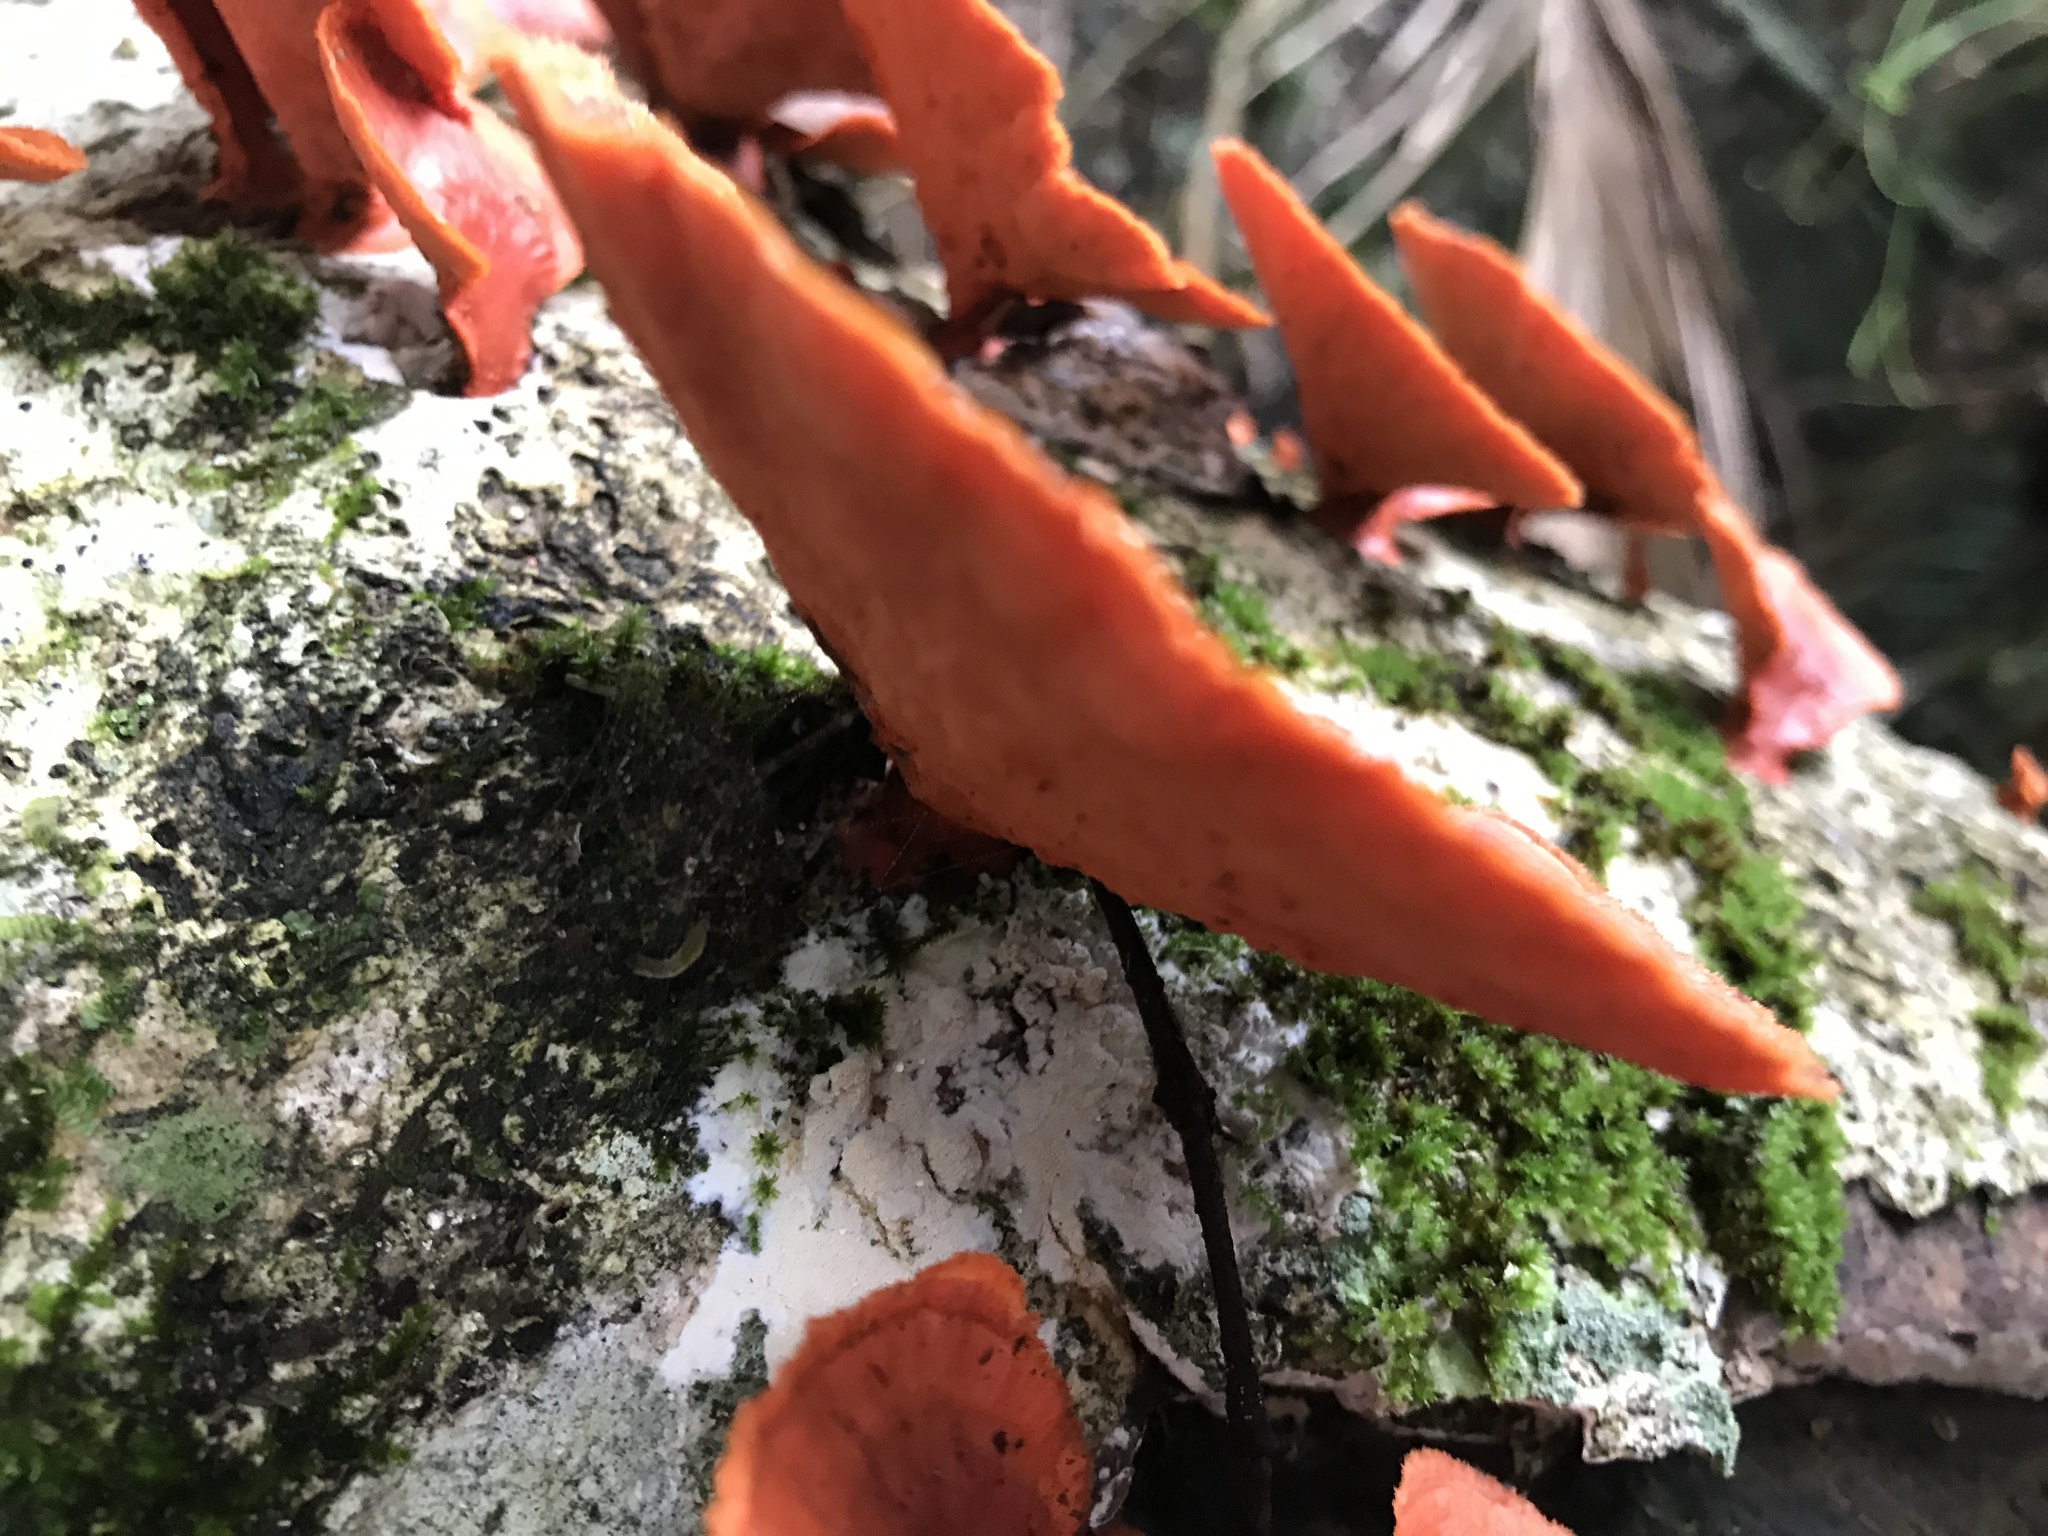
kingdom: Fungi
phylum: Basidiomycota
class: Agaricomycetes
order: Polyporales
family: Polyporaceae
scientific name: Polyporaceae
